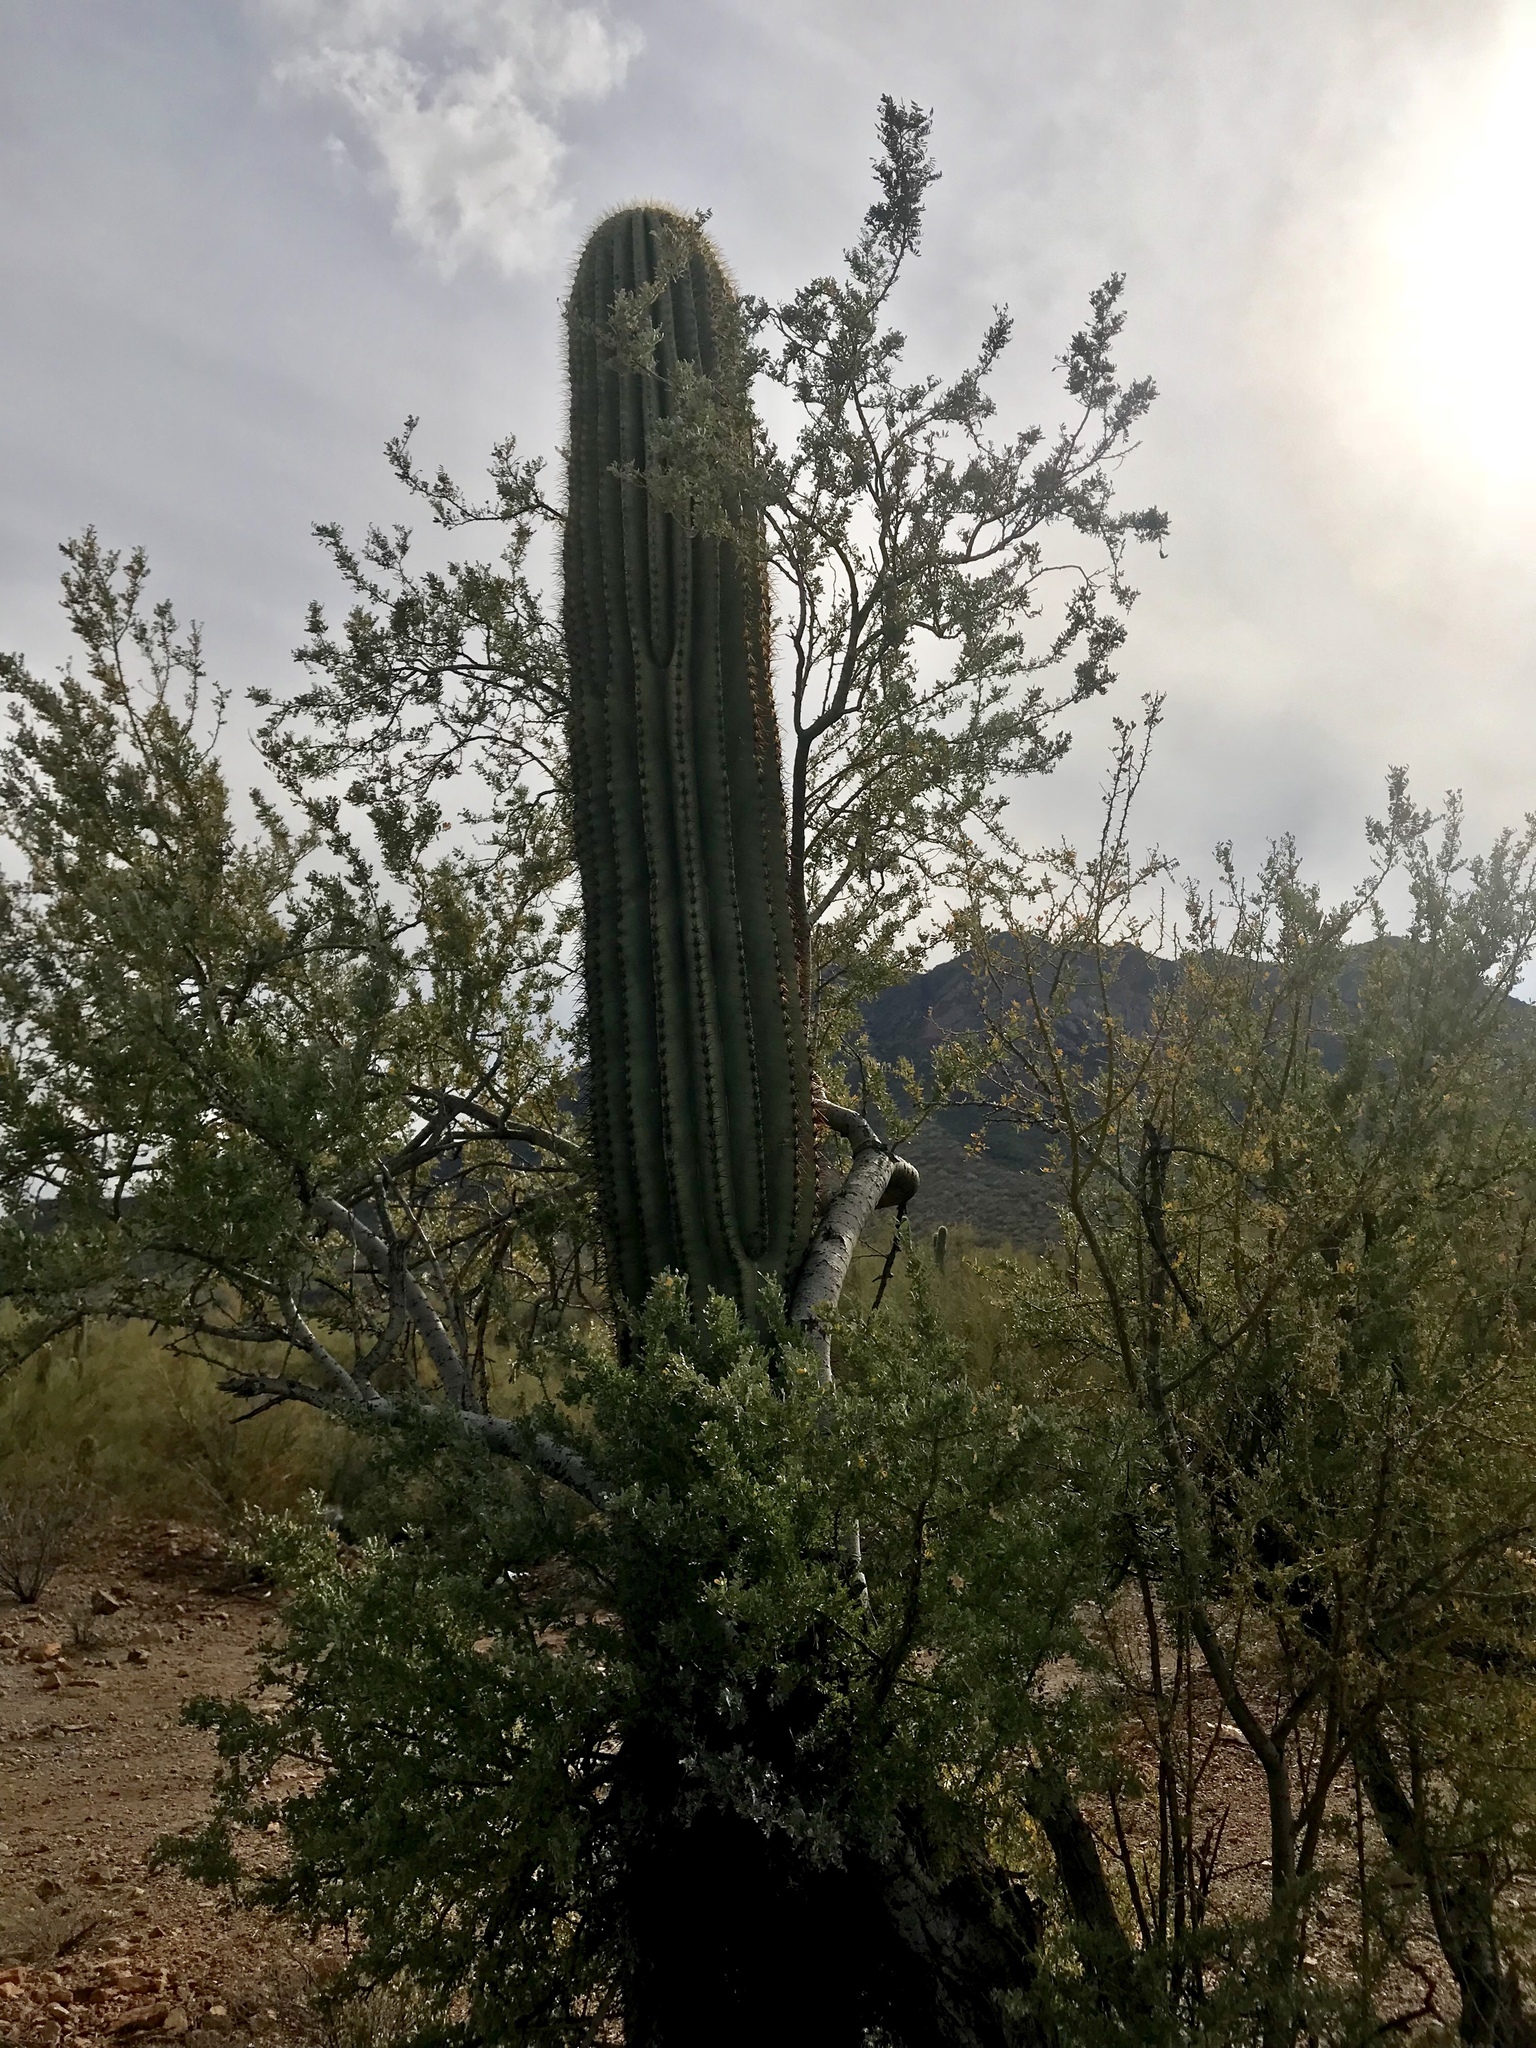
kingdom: Plantae
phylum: Tracheophyta
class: Magnoliopsida
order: Caryophyllales
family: Cactaceae
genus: Carnegiea
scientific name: Carnegiea gigantea
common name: Saguaro
